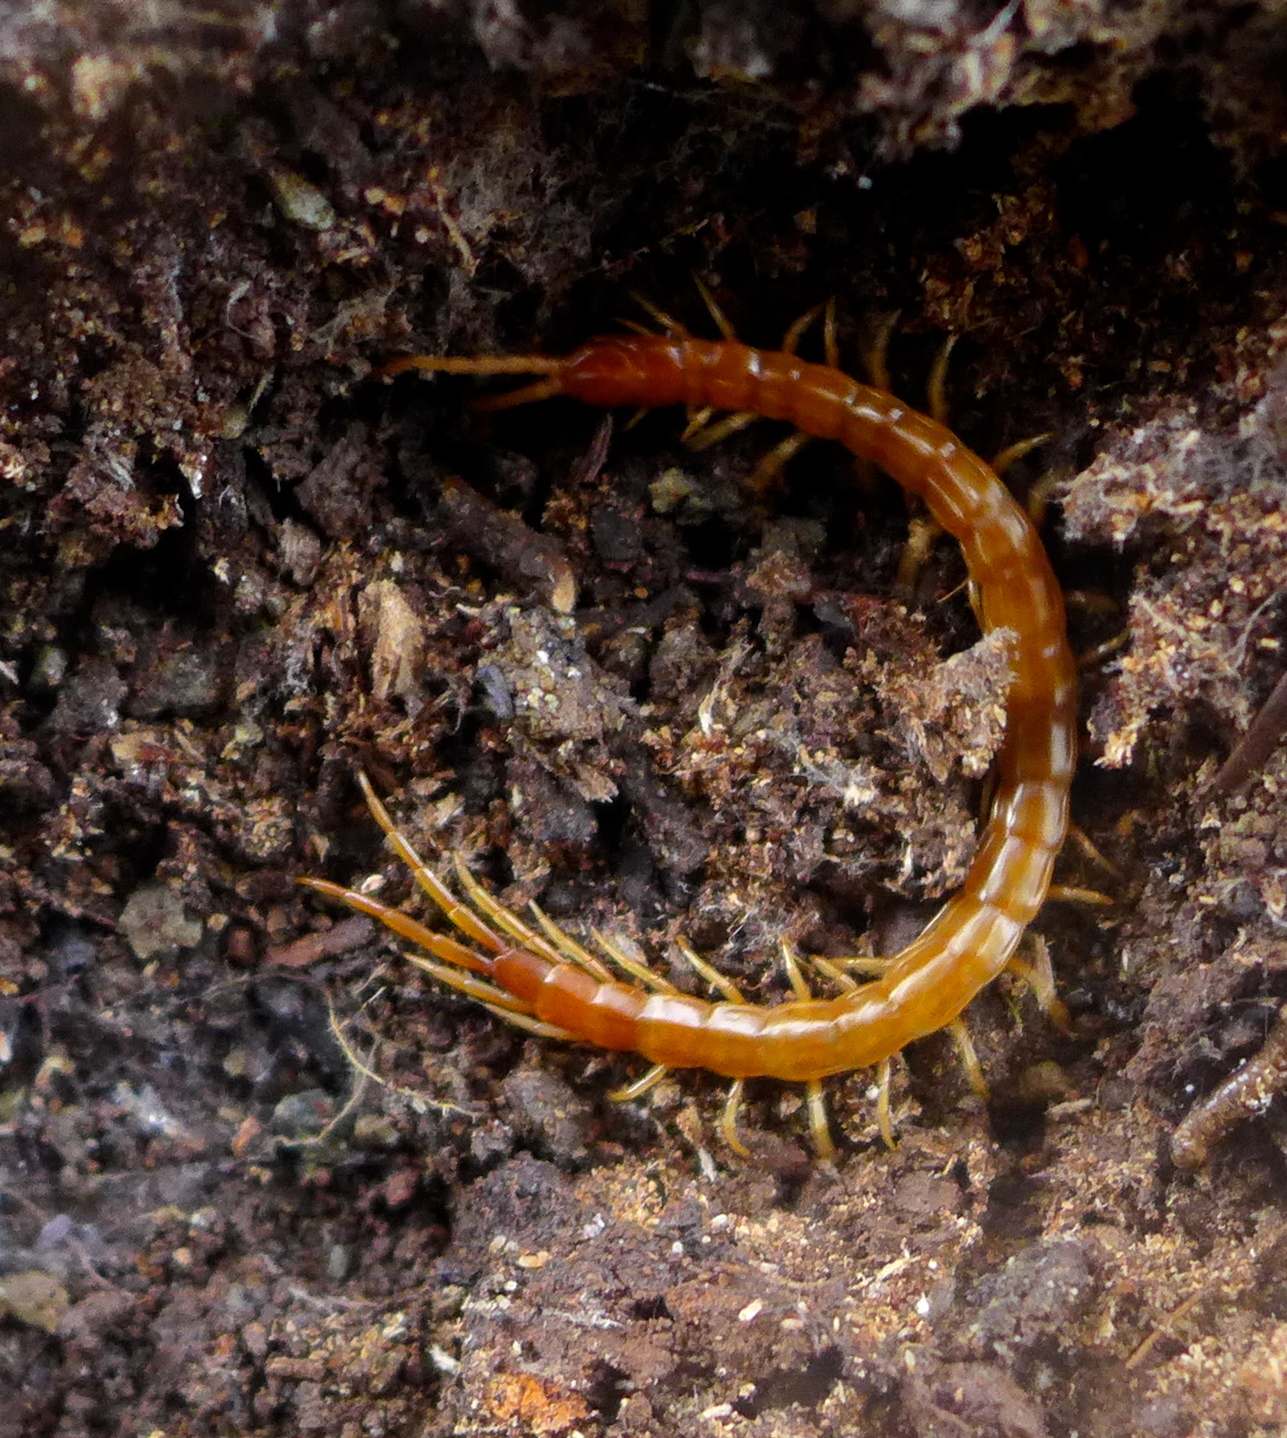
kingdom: Animalia
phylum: Arthropoda
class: Chilopoda
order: Scolopendromorpha
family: Scolopocryptopidae
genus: Scolopocryptops
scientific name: Scolopocryptops spinicaudus
